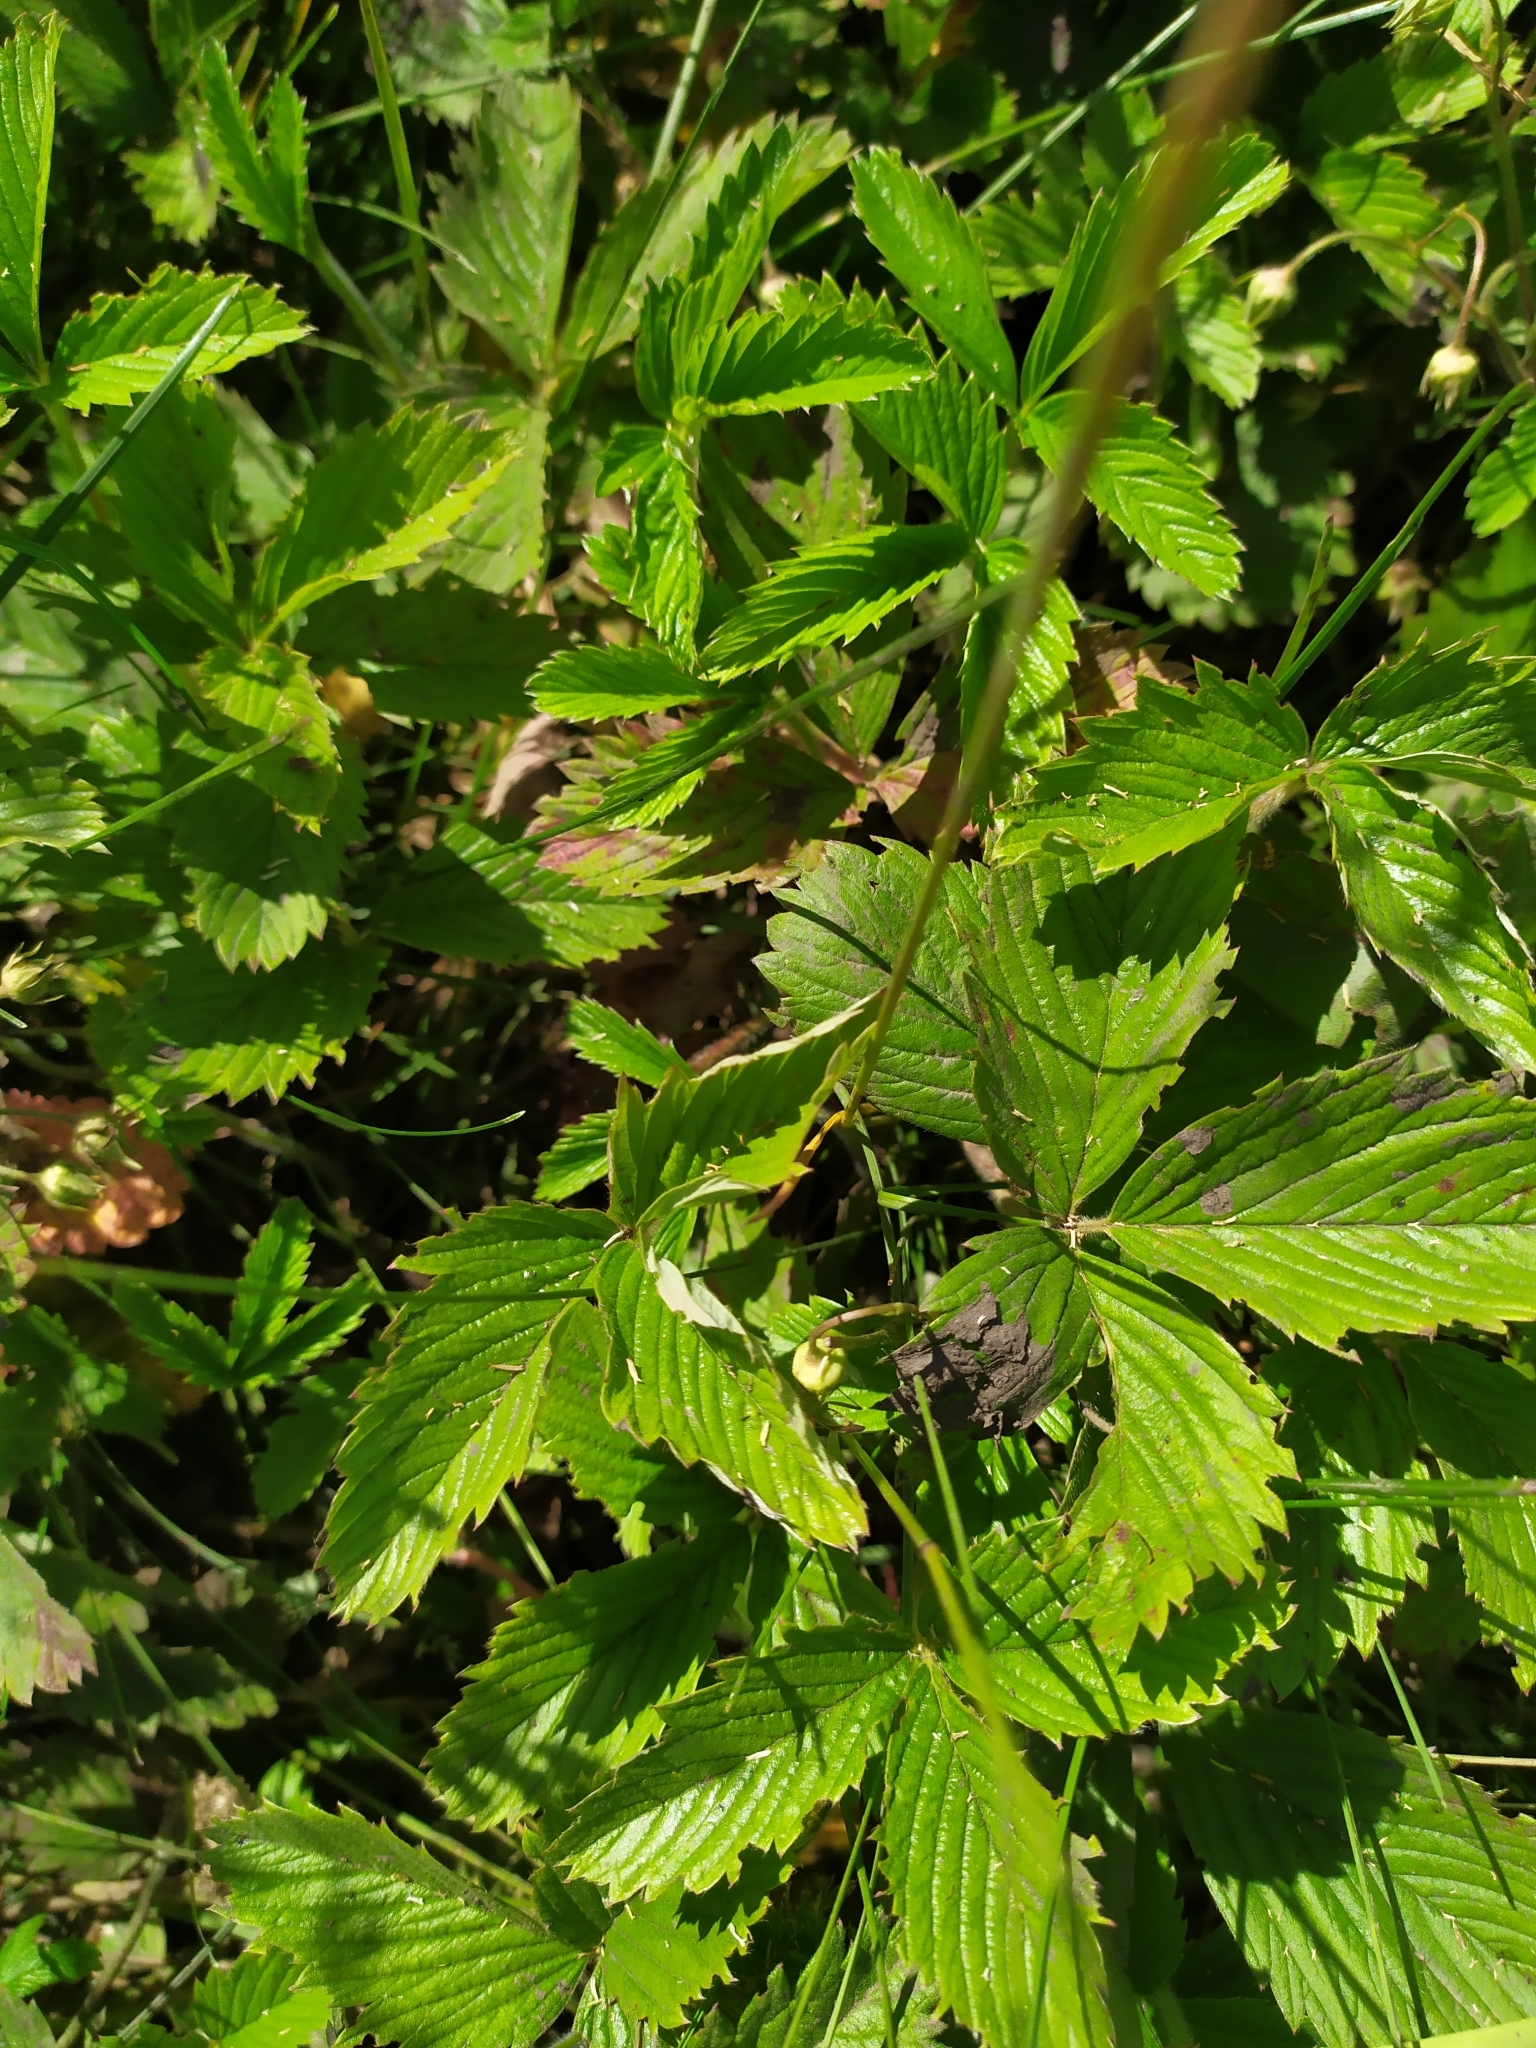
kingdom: Plantae
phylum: Tracheophyta
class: Magnoliopsida
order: Rosales
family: Rosaceae
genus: Fragaria
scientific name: Fragaria viridis
